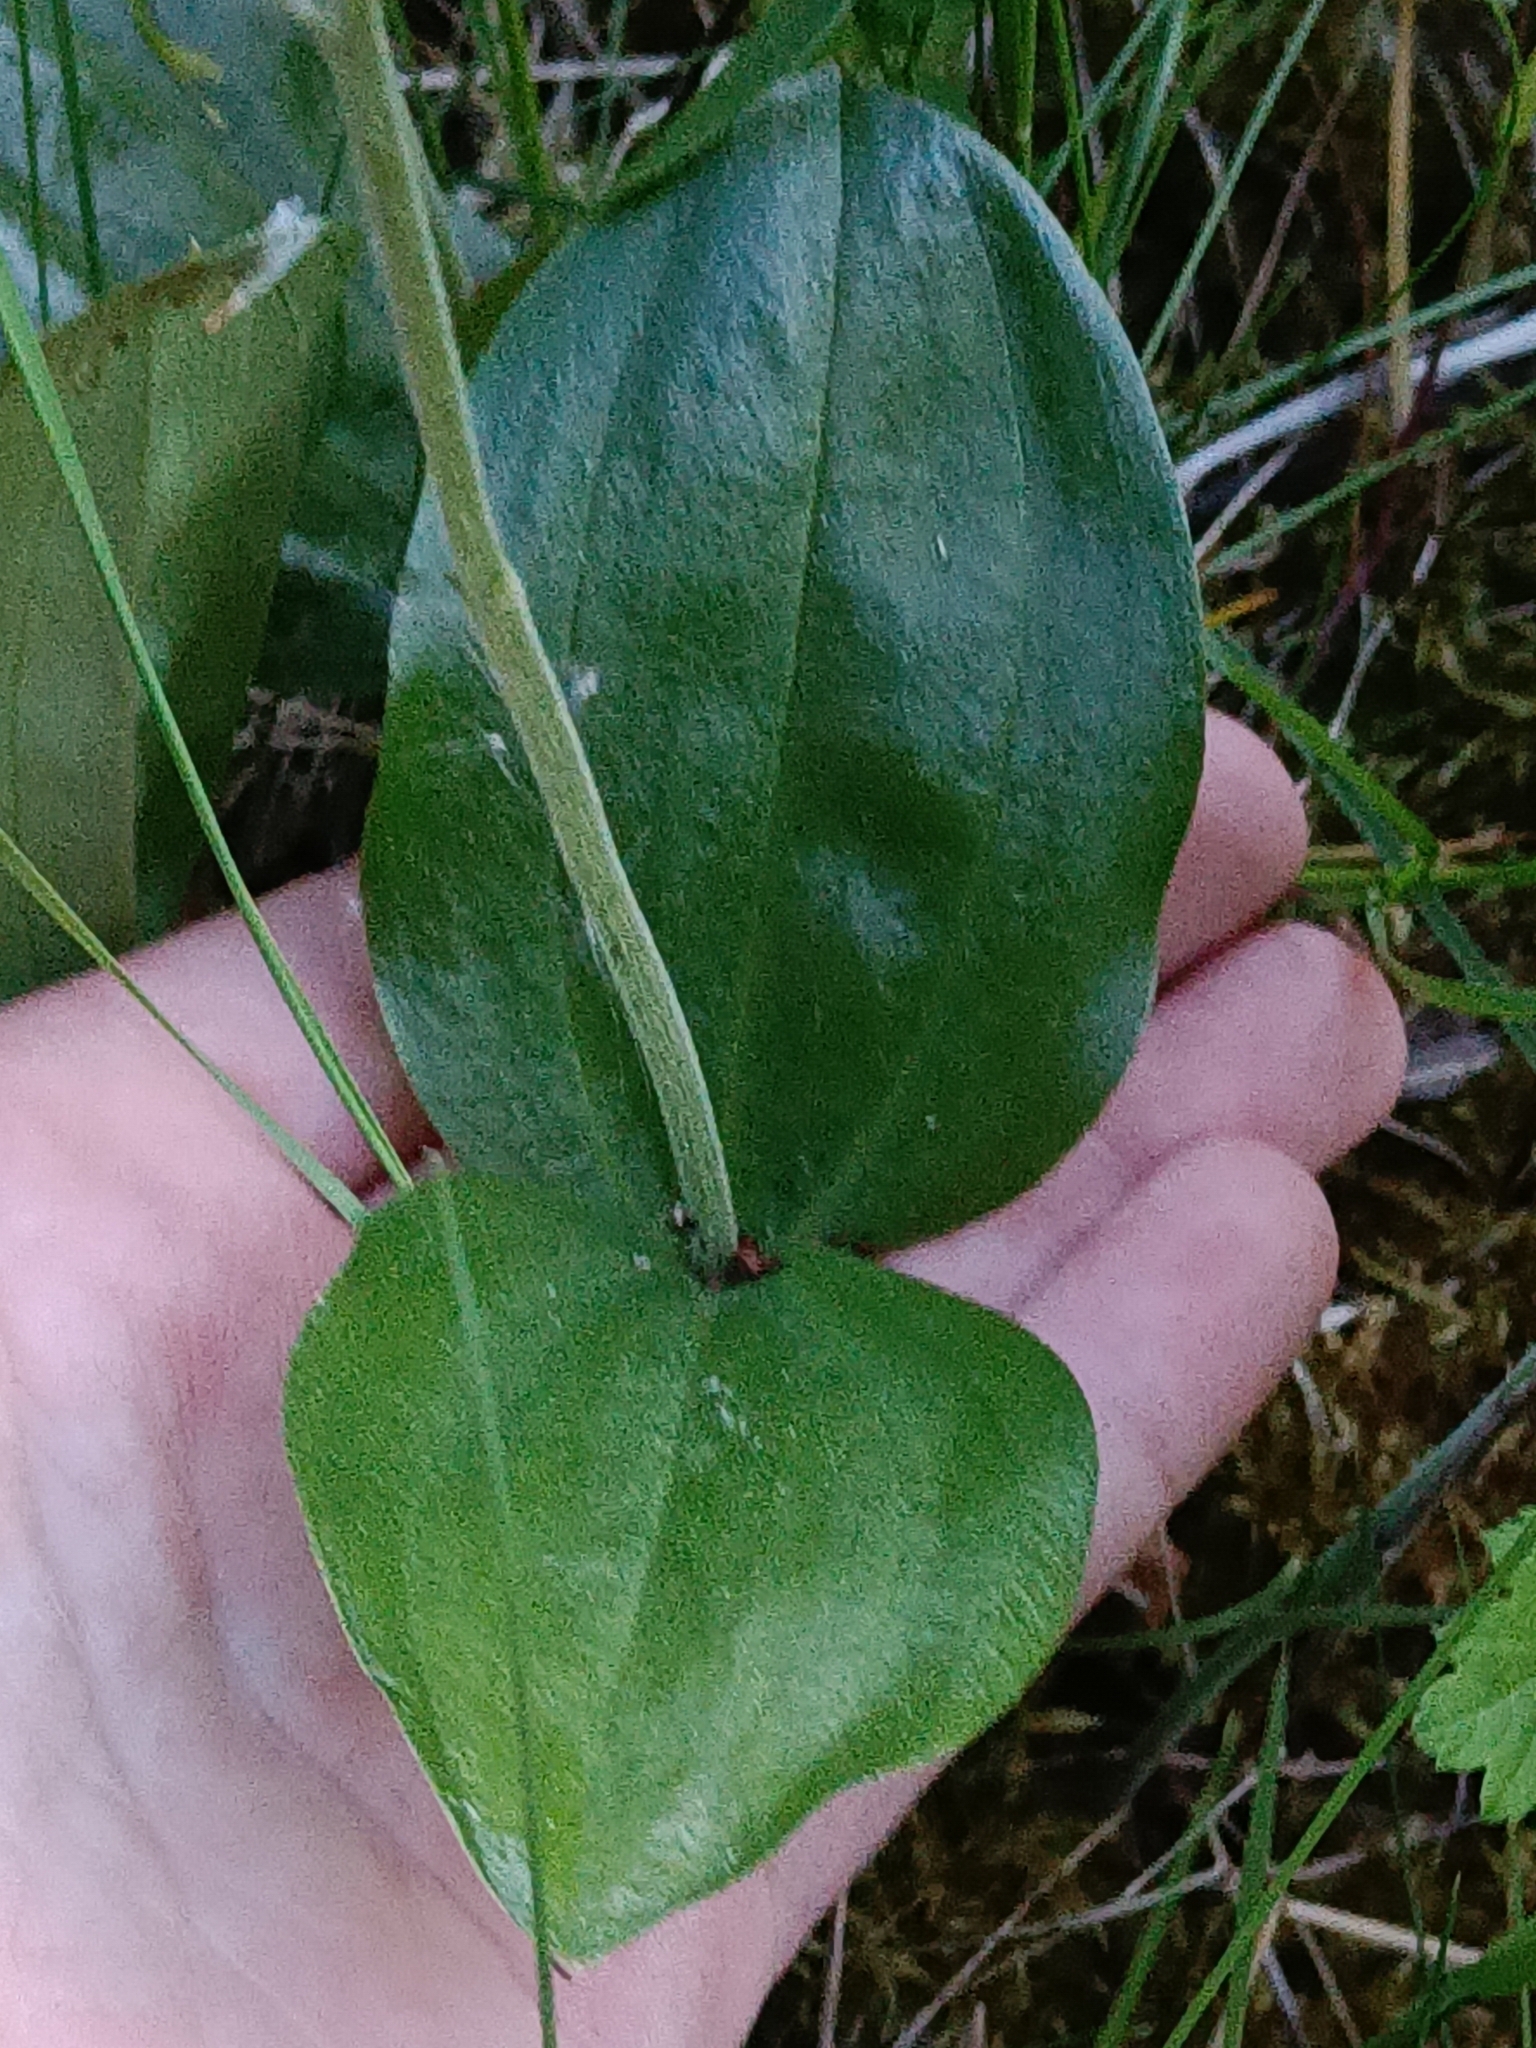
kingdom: Plantae
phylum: Tracheophyta
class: Liliopsida
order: Asparagales
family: Orchidaceae
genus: Neottia
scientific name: Neottia ovata
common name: Common twayblade
